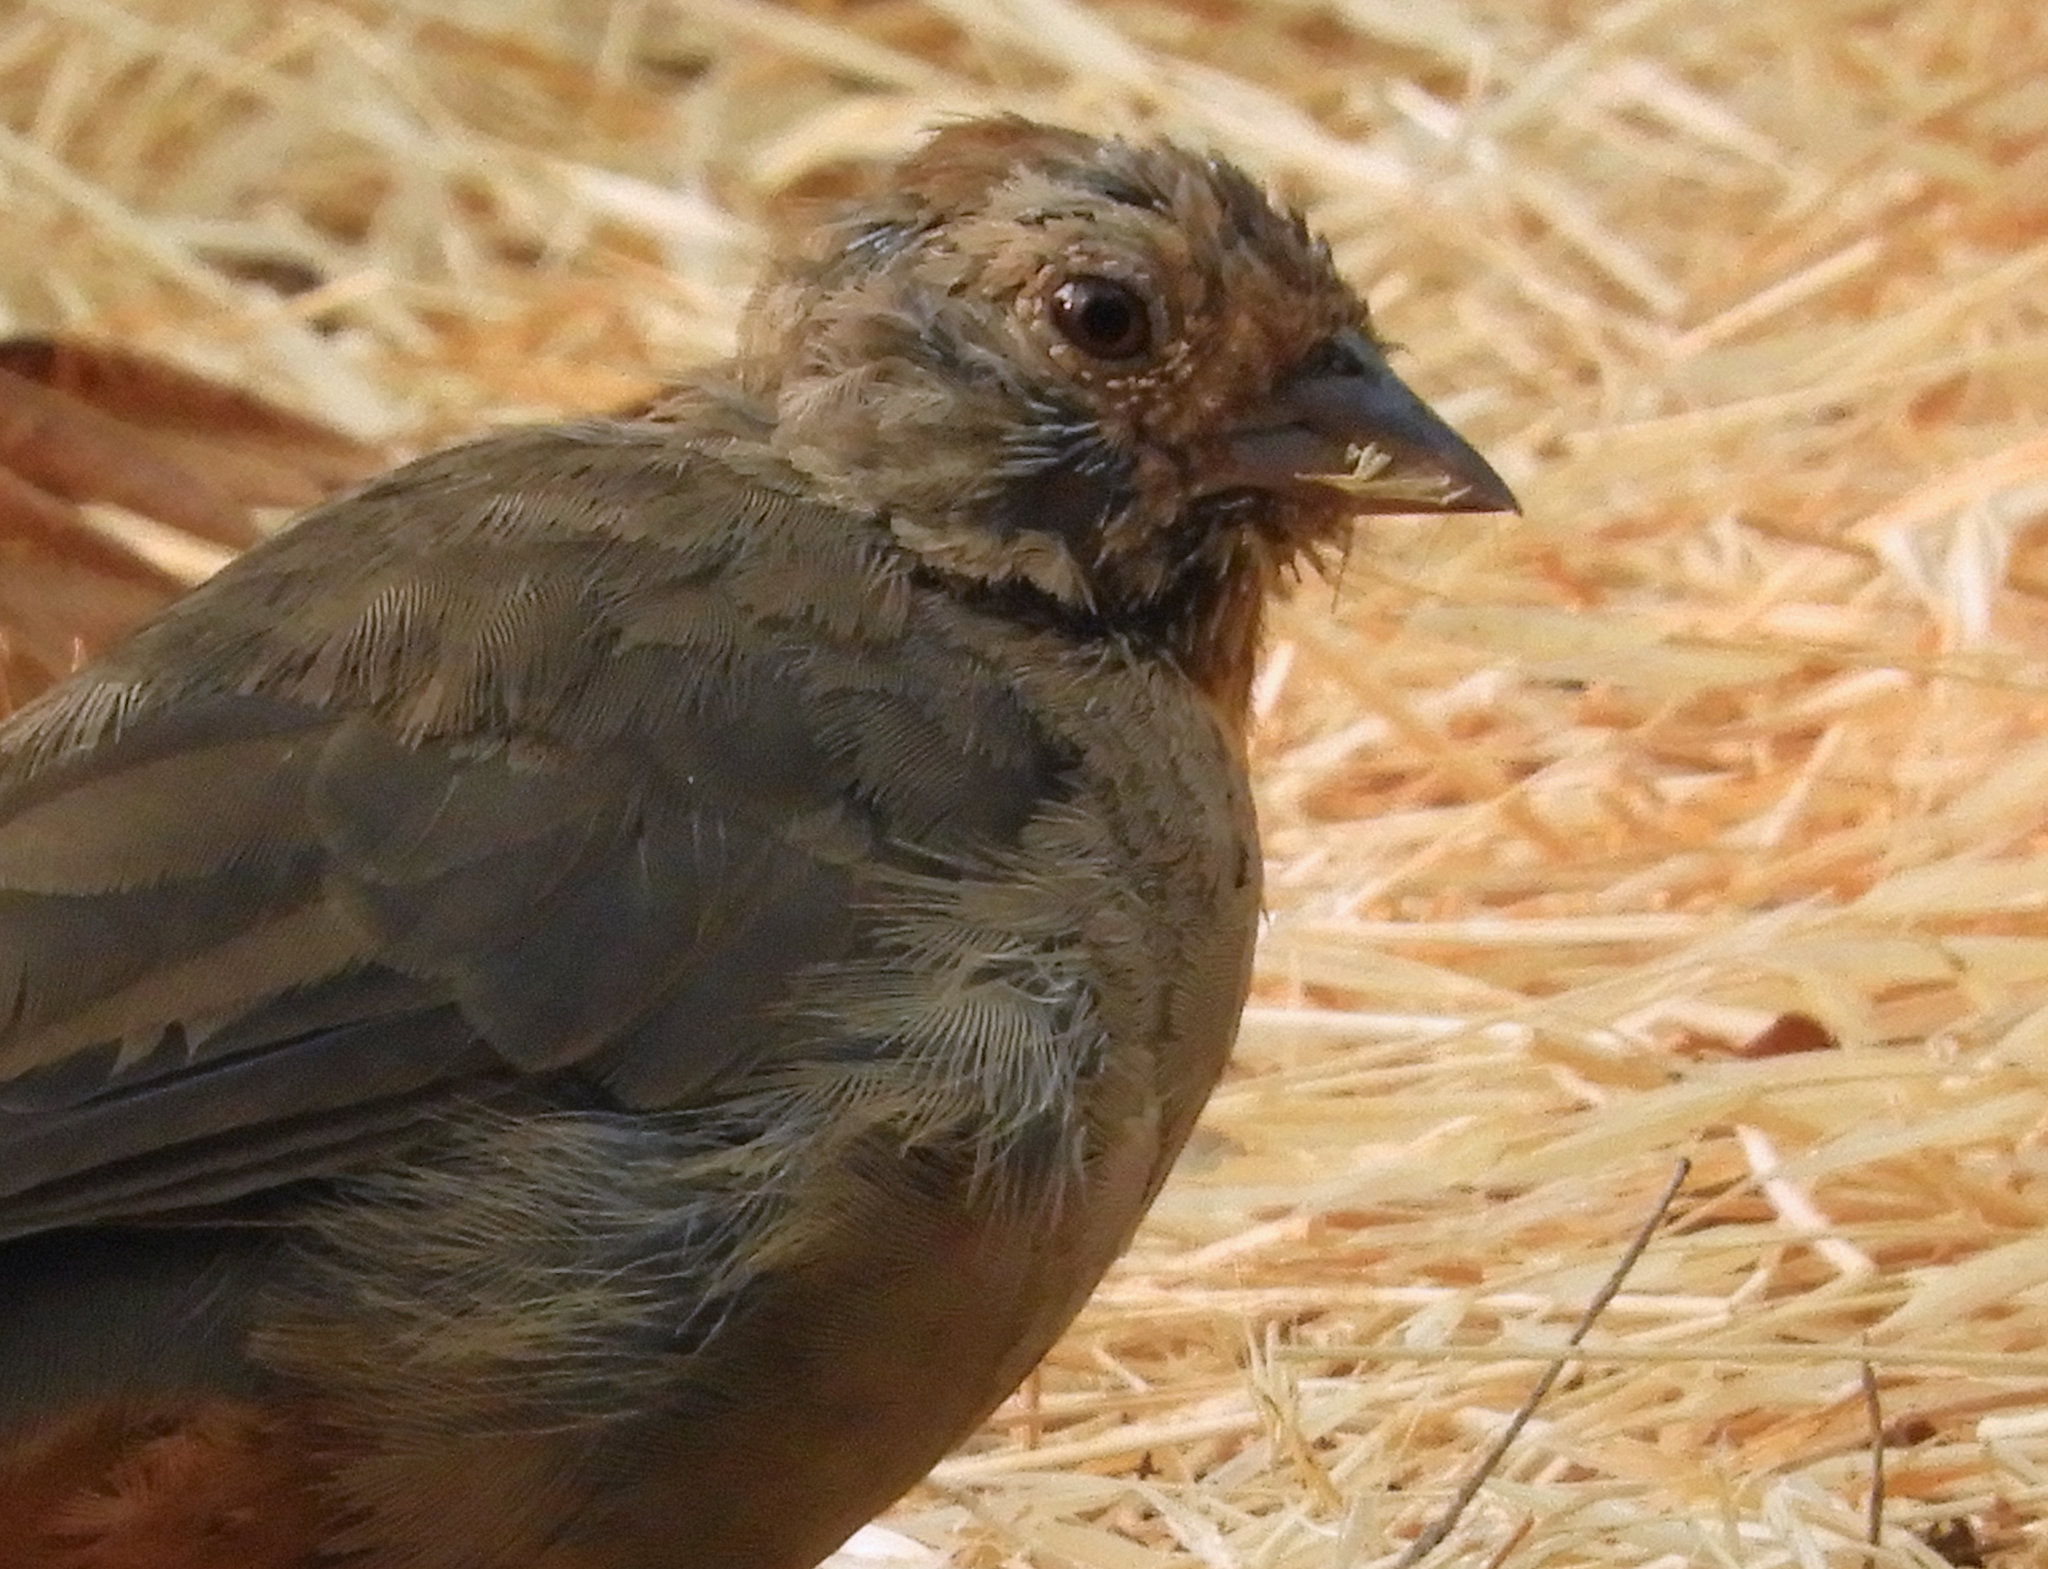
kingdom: Animalia
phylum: Chordata
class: Aves
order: Passeriformes
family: Passerellidae
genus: Melozone
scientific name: Melozone crissalis
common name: California towhee
